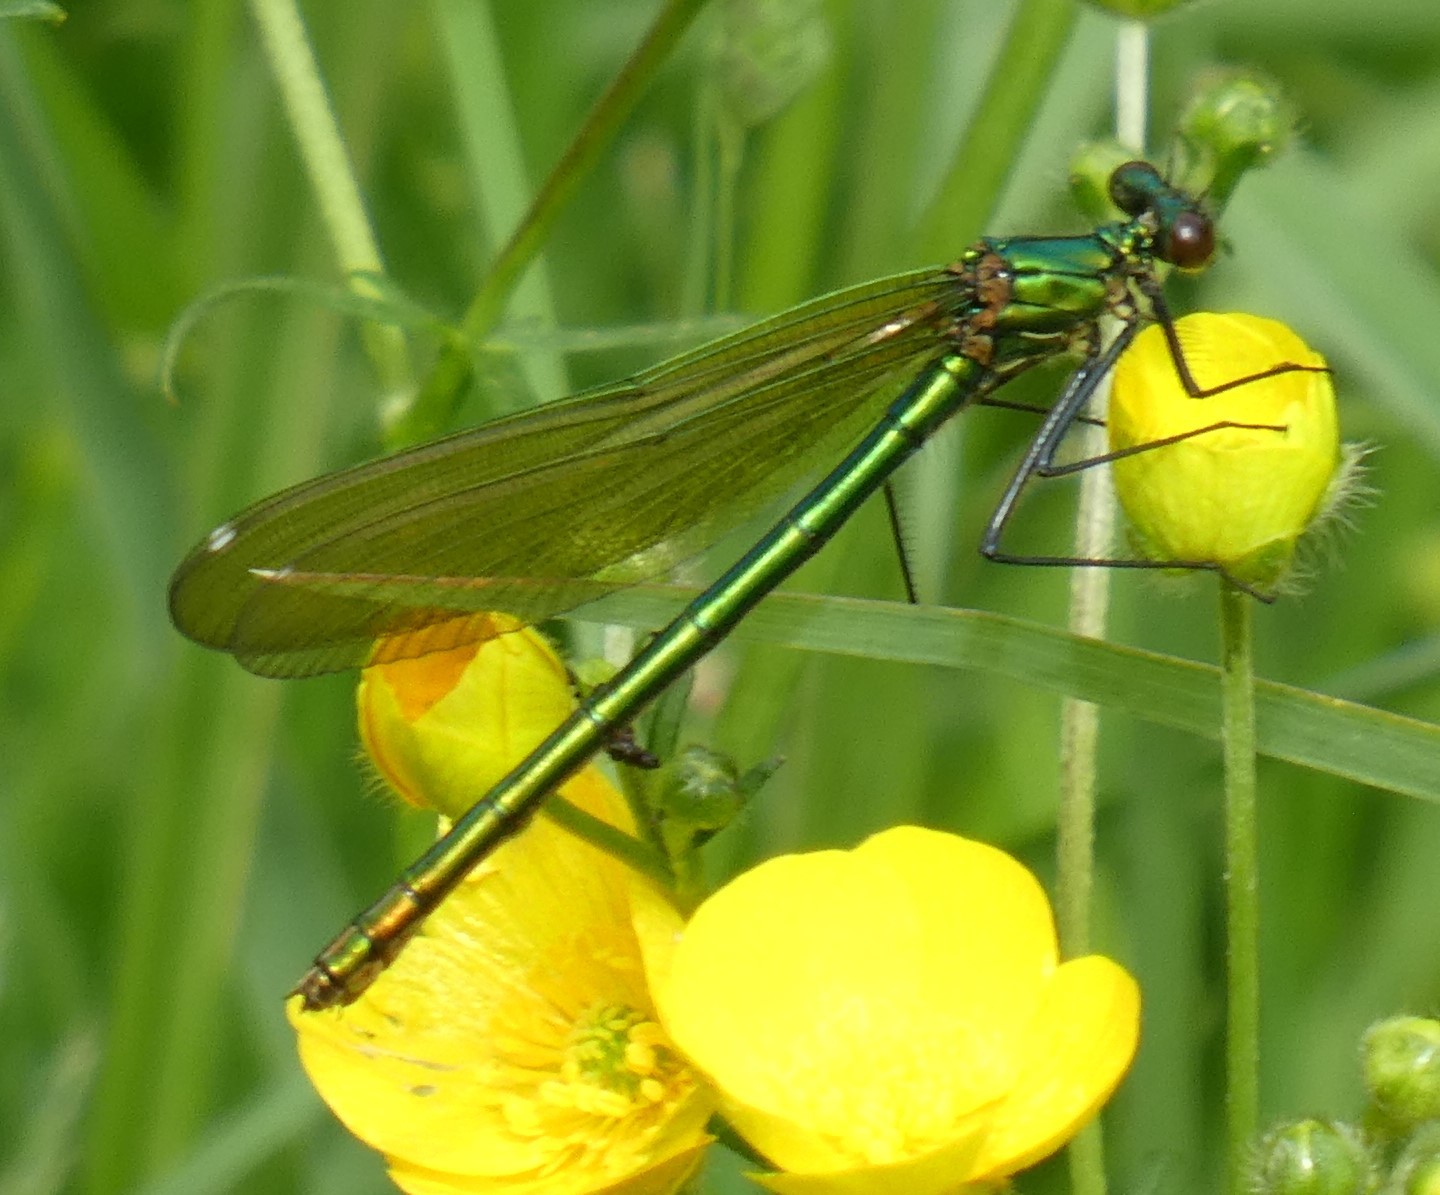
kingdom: Animalia
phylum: Arthropoda
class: Insecta
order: Odonata
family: Calopterygidae
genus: Calopteryx
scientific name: Calopteryx splendens
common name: Banded demoiselle
